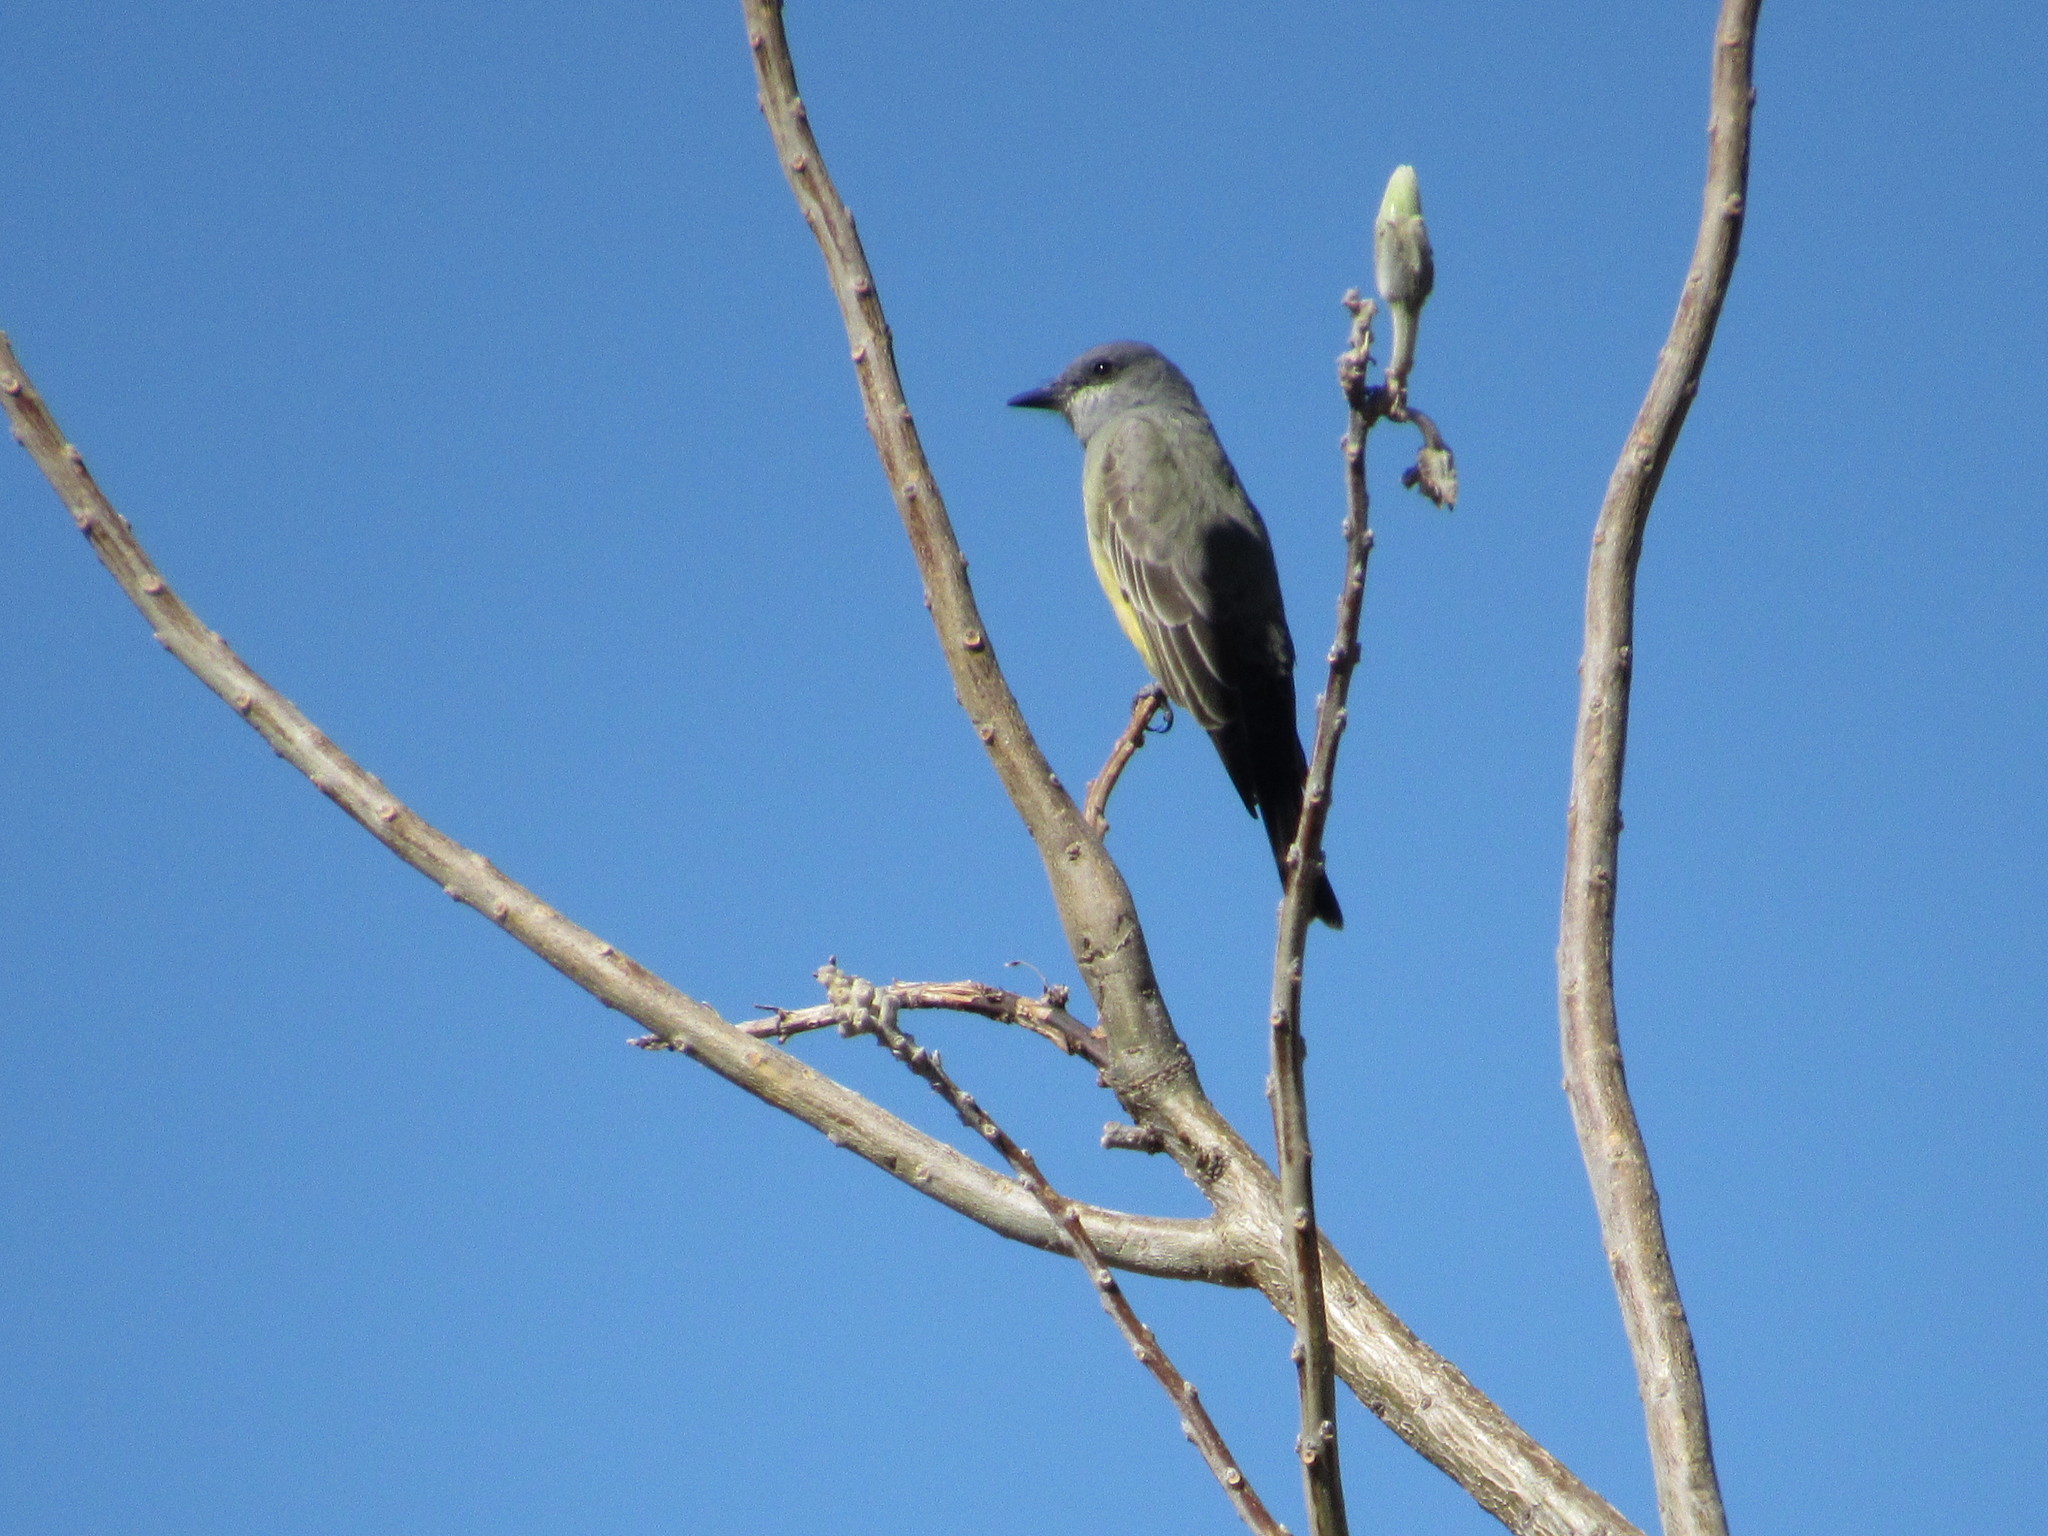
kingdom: Animalia
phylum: Chordata
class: Aves
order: Passeriformes
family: Tyrannidae
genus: Tyrannus
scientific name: Tyrannus vociferans
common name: Cassin's kingbird
